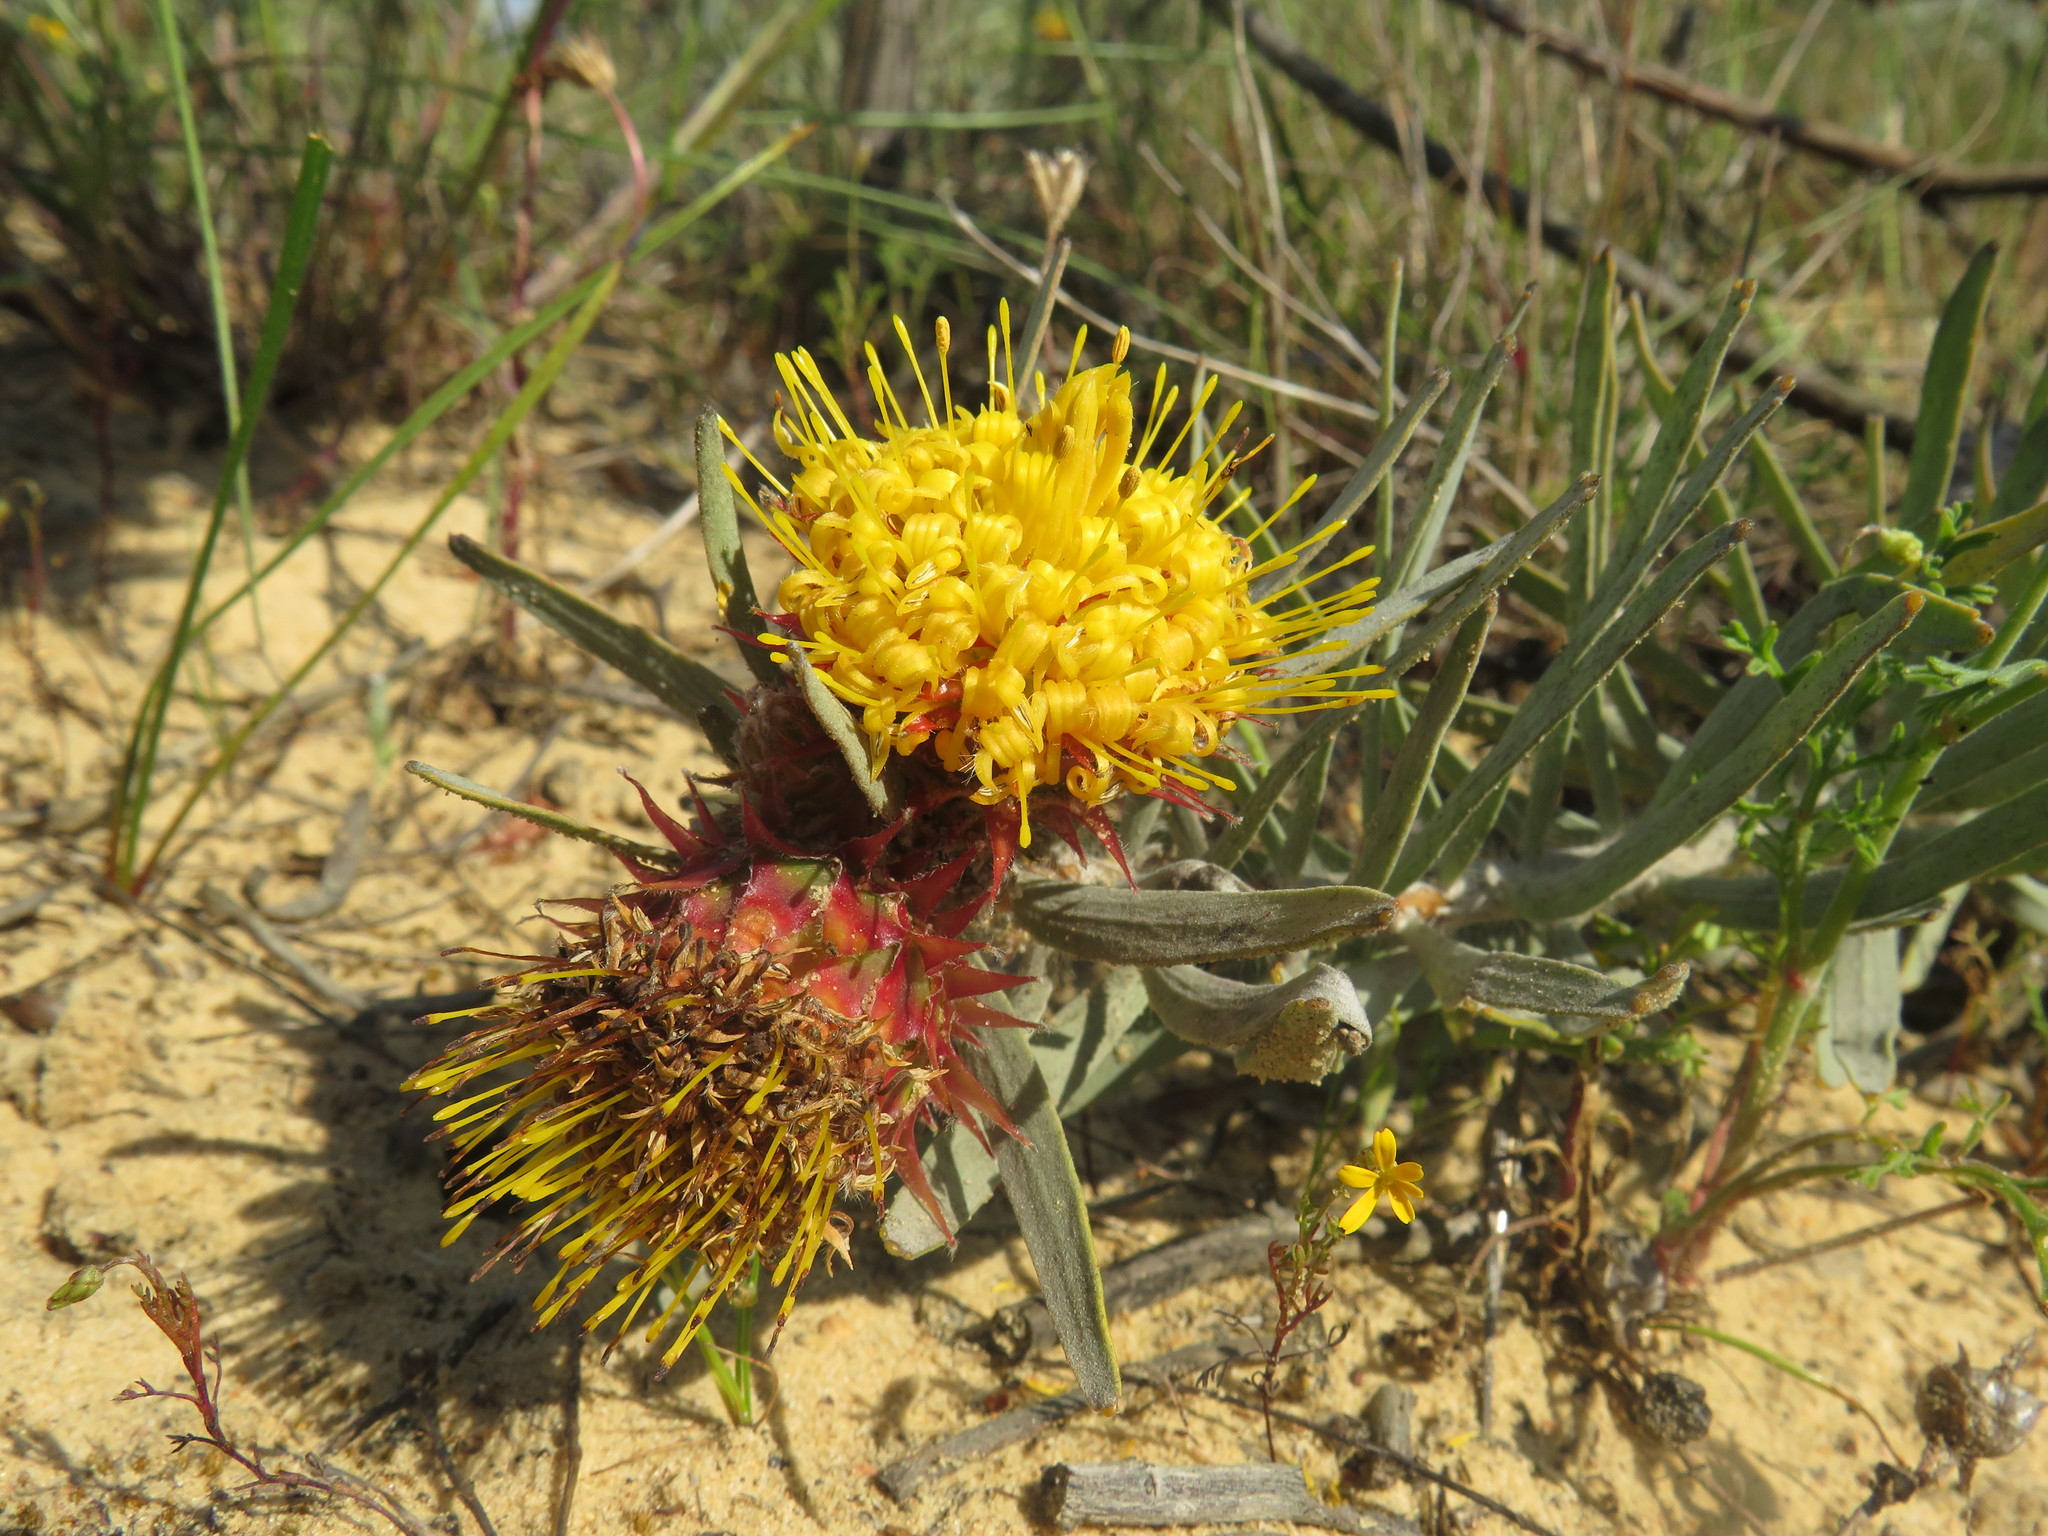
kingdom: Plantae
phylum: Tracheophyta
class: Magnoliopsida
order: Proteales
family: Proteaceae
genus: Leucospermum
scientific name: Leucospermum parile
